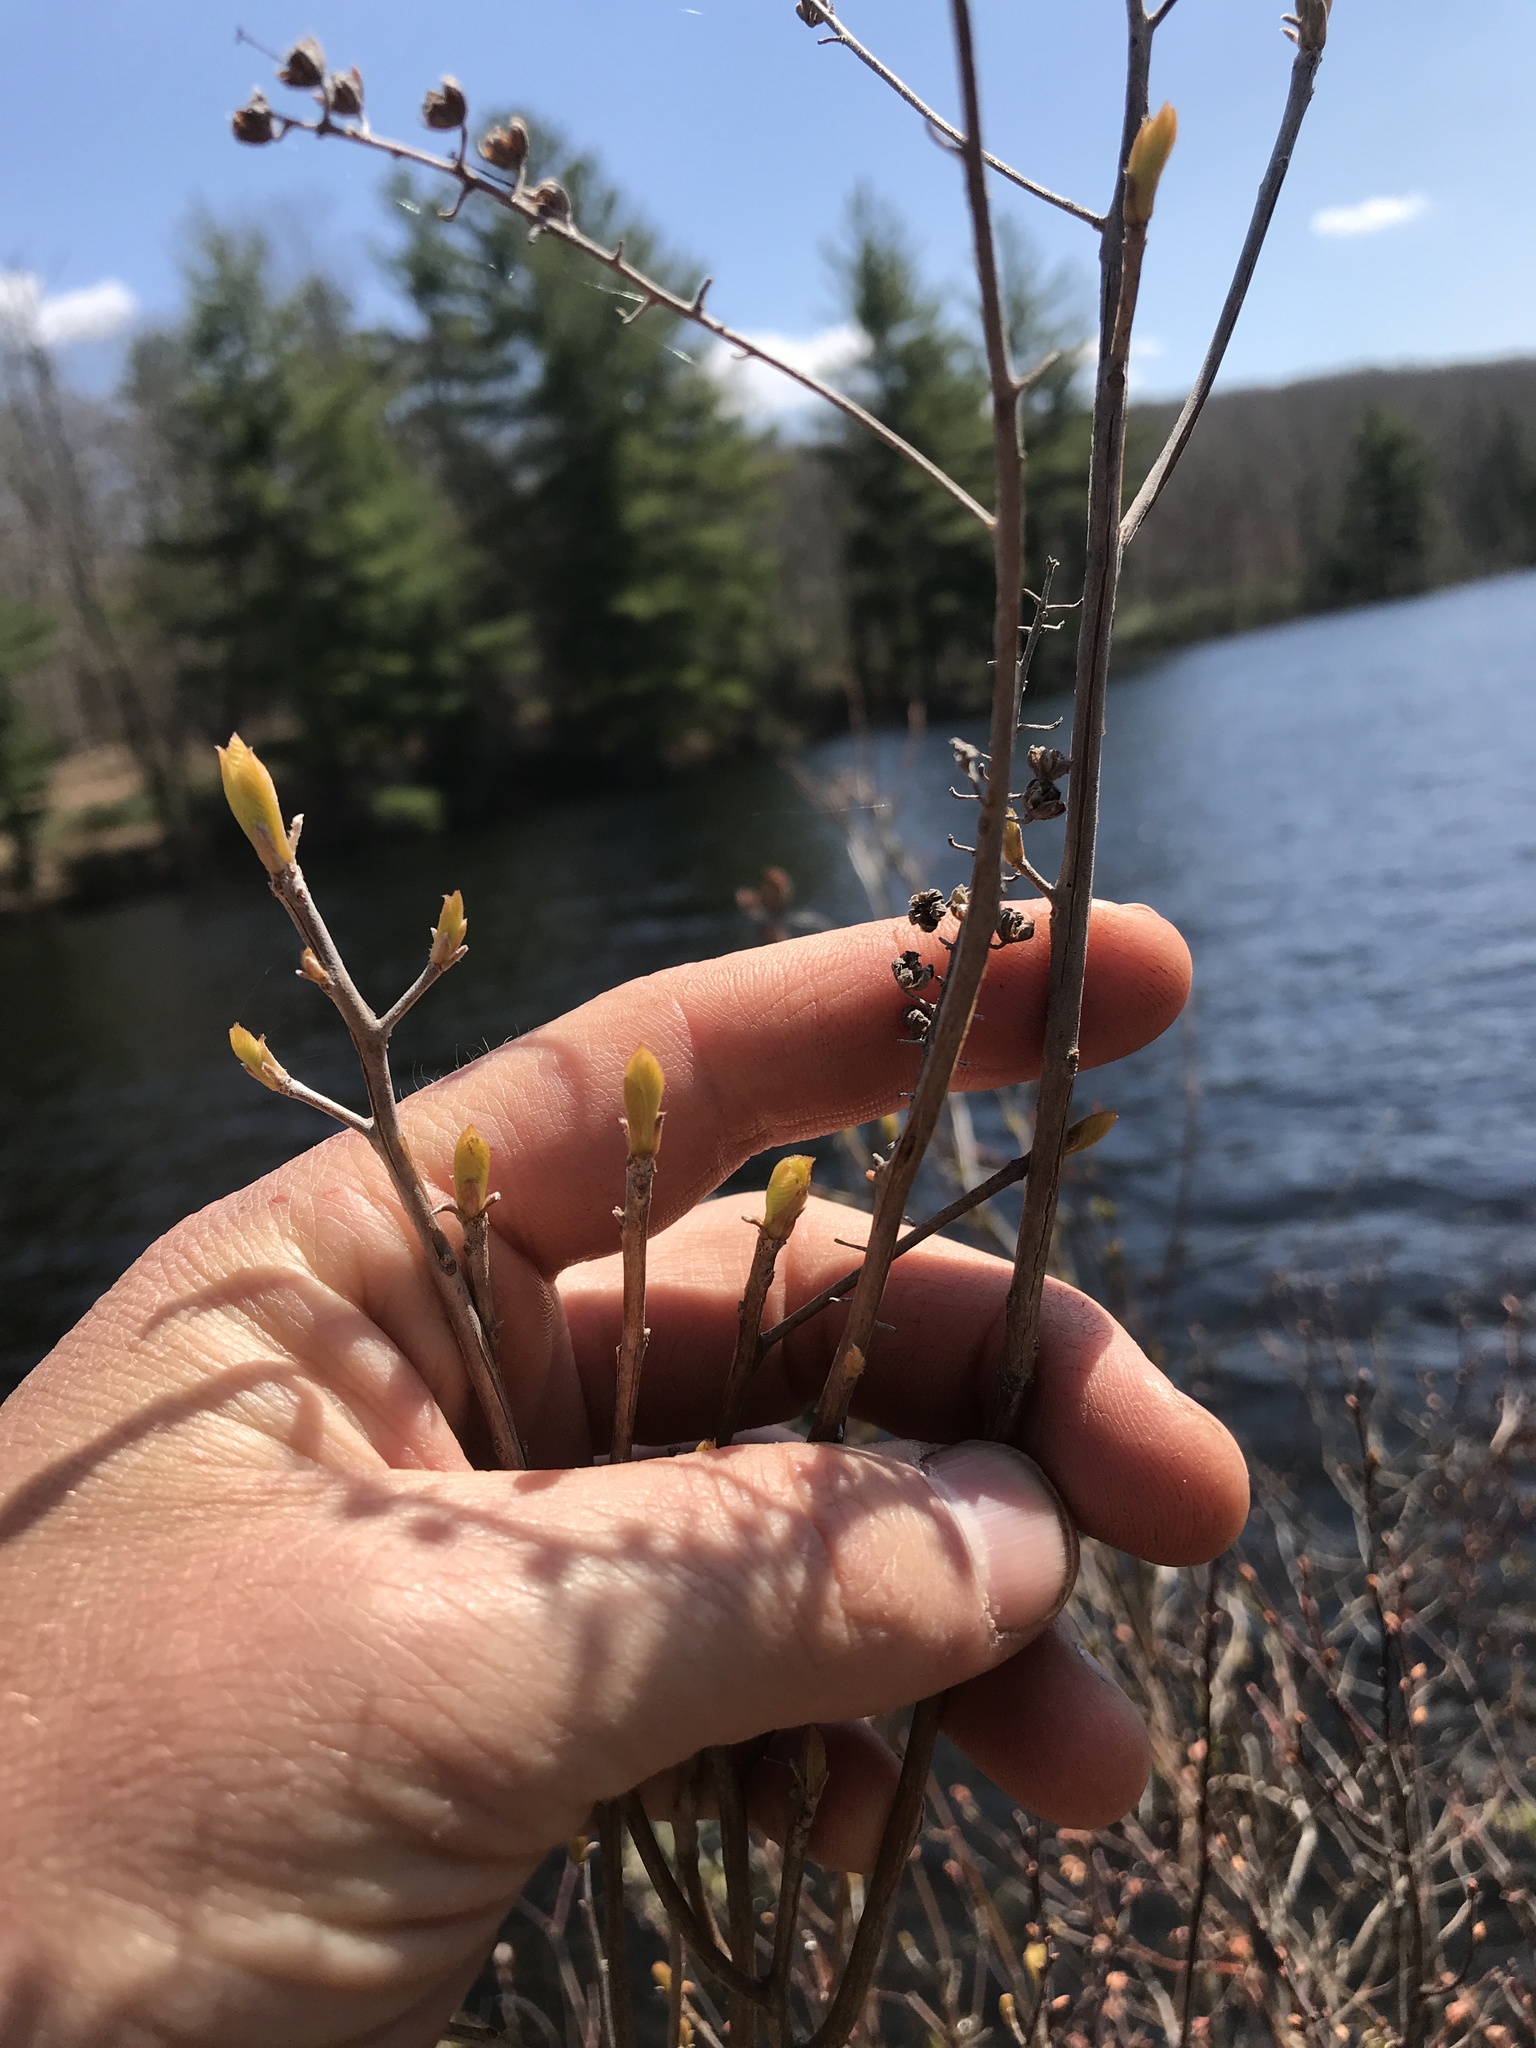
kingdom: Plantae
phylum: Tracheophyta
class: Magnoliopsida
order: Ericales
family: Clethraceae
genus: Clethra
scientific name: Clethra alnifolia
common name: Sweet pepperbush
